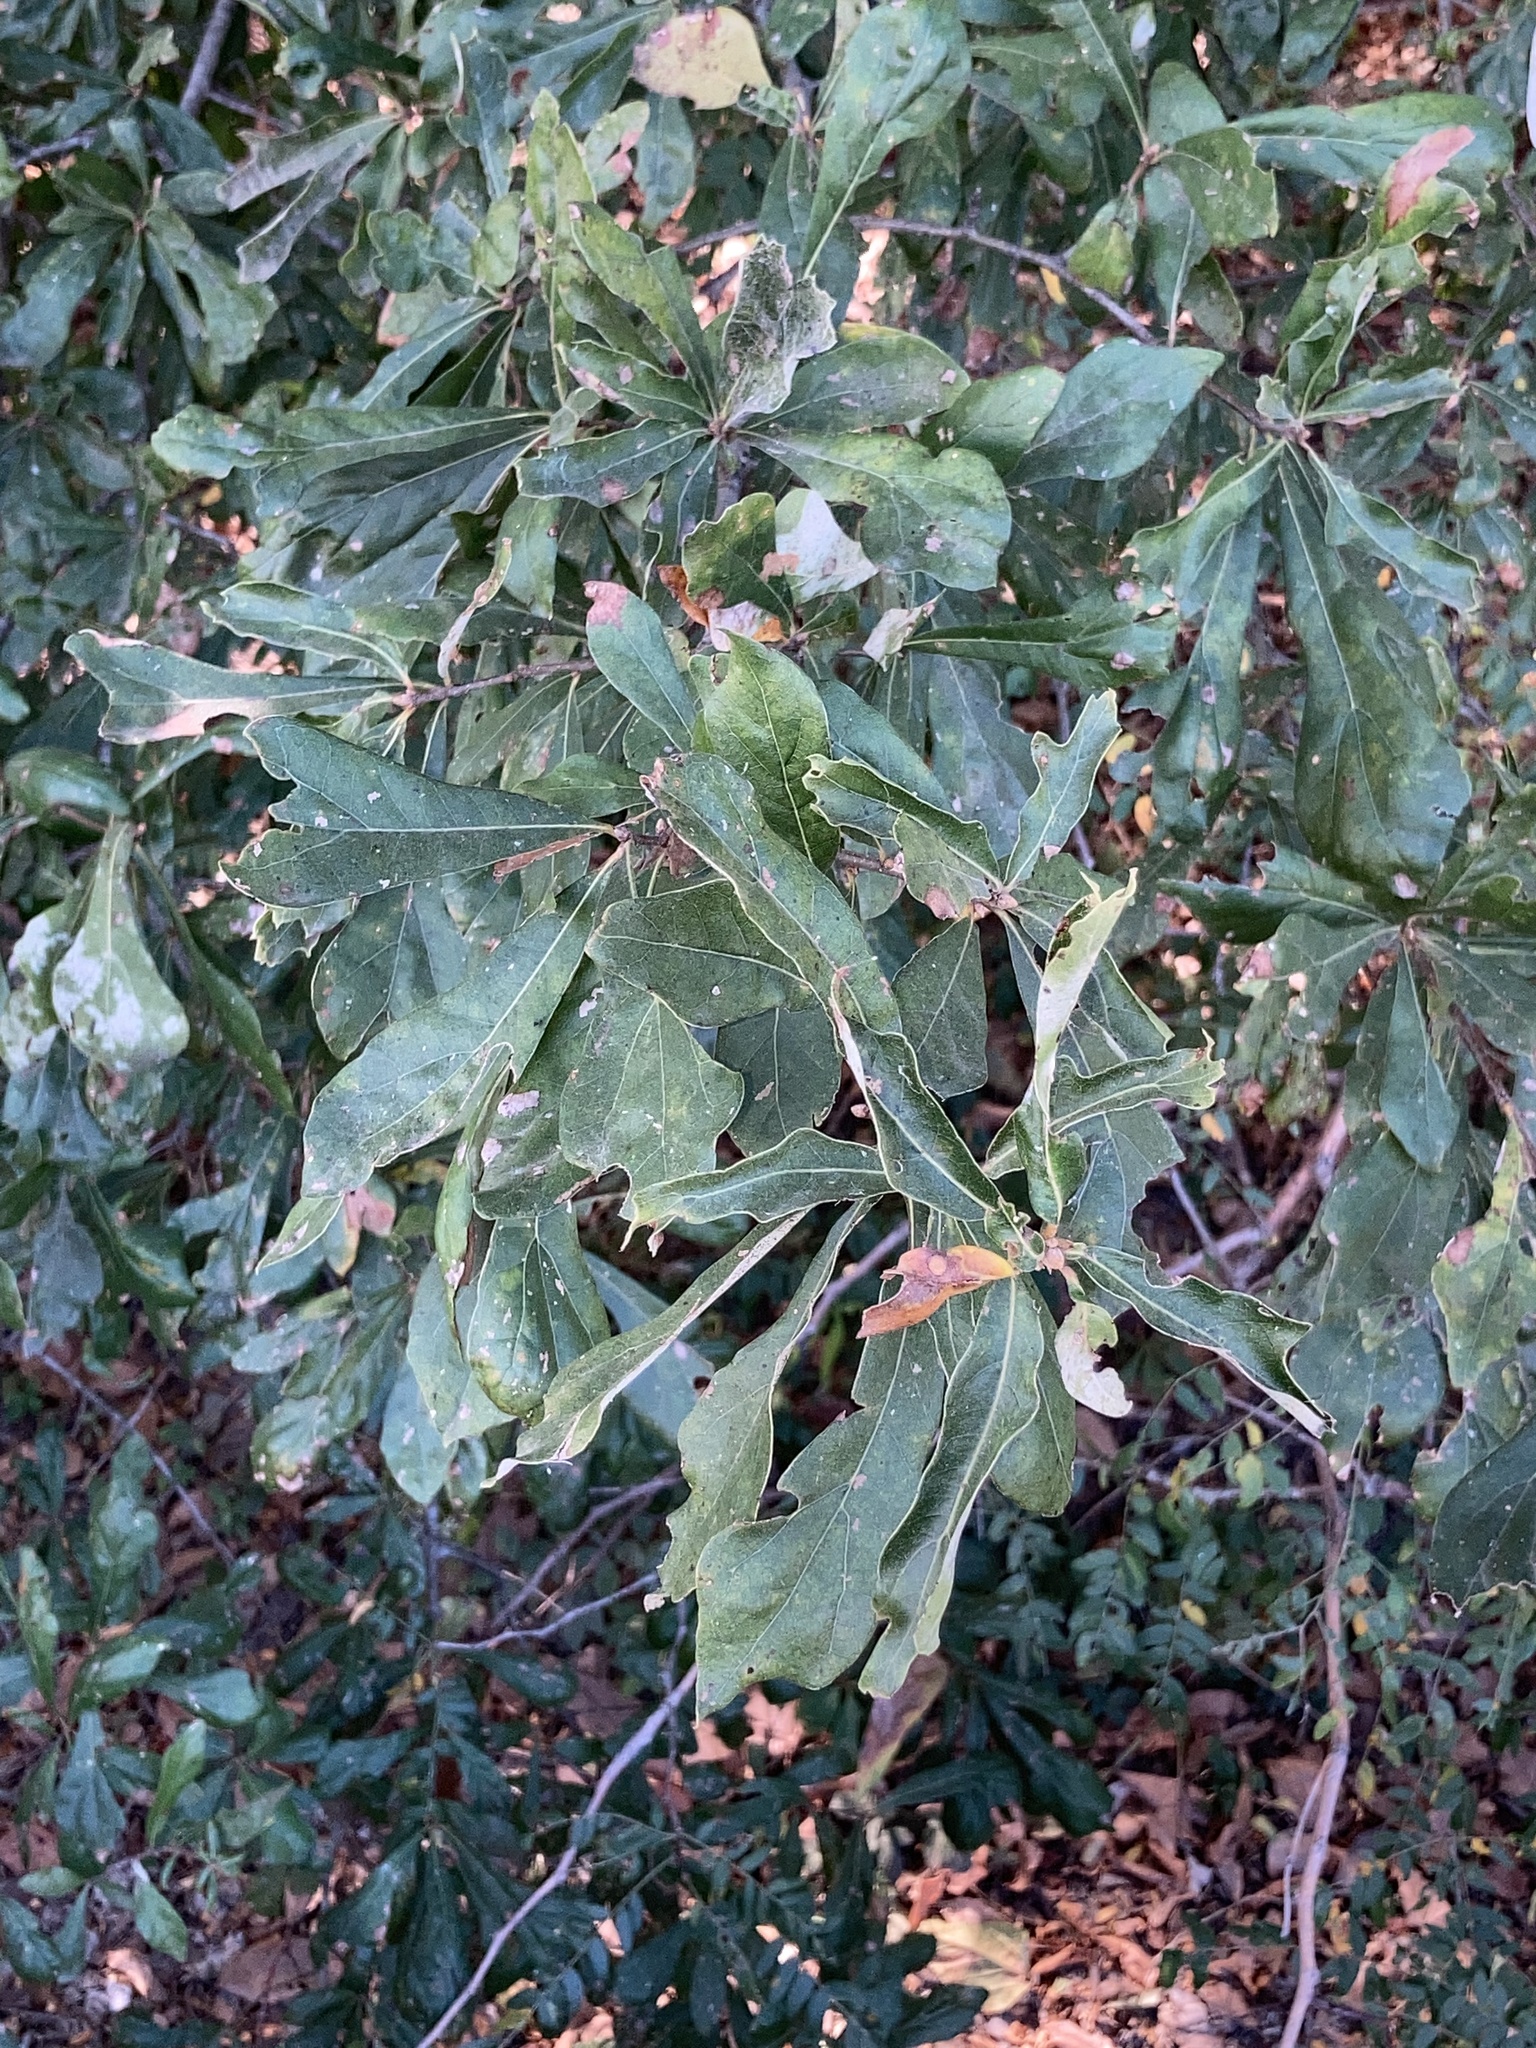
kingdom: Plantae
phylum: Tracheophyta
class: Magnoliopsida
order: Fagales
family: Fagaceae
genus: Quercus
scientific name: Quercus nigra
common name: Water oak
